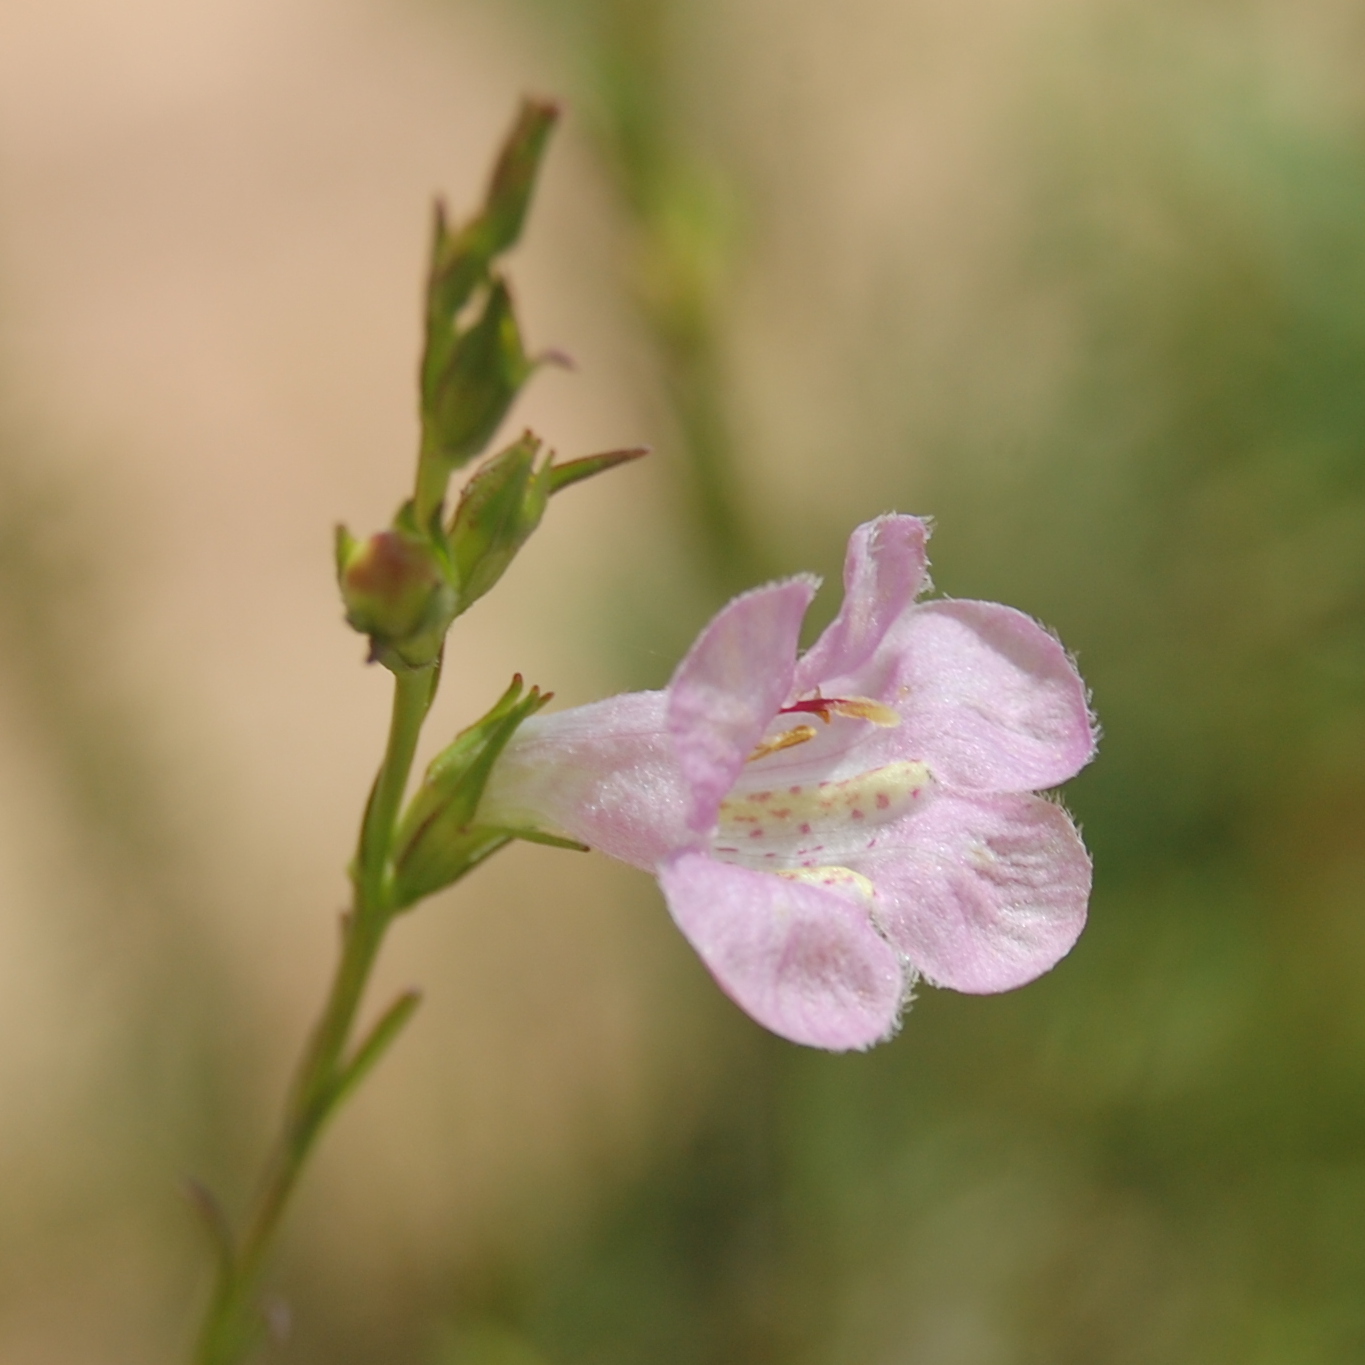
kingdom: Plantae
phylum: Tracheophyta
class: Magnoliopsida
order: Lamiales
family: Orobanchaceae
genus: Agalinis
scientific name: Agalinis communis
